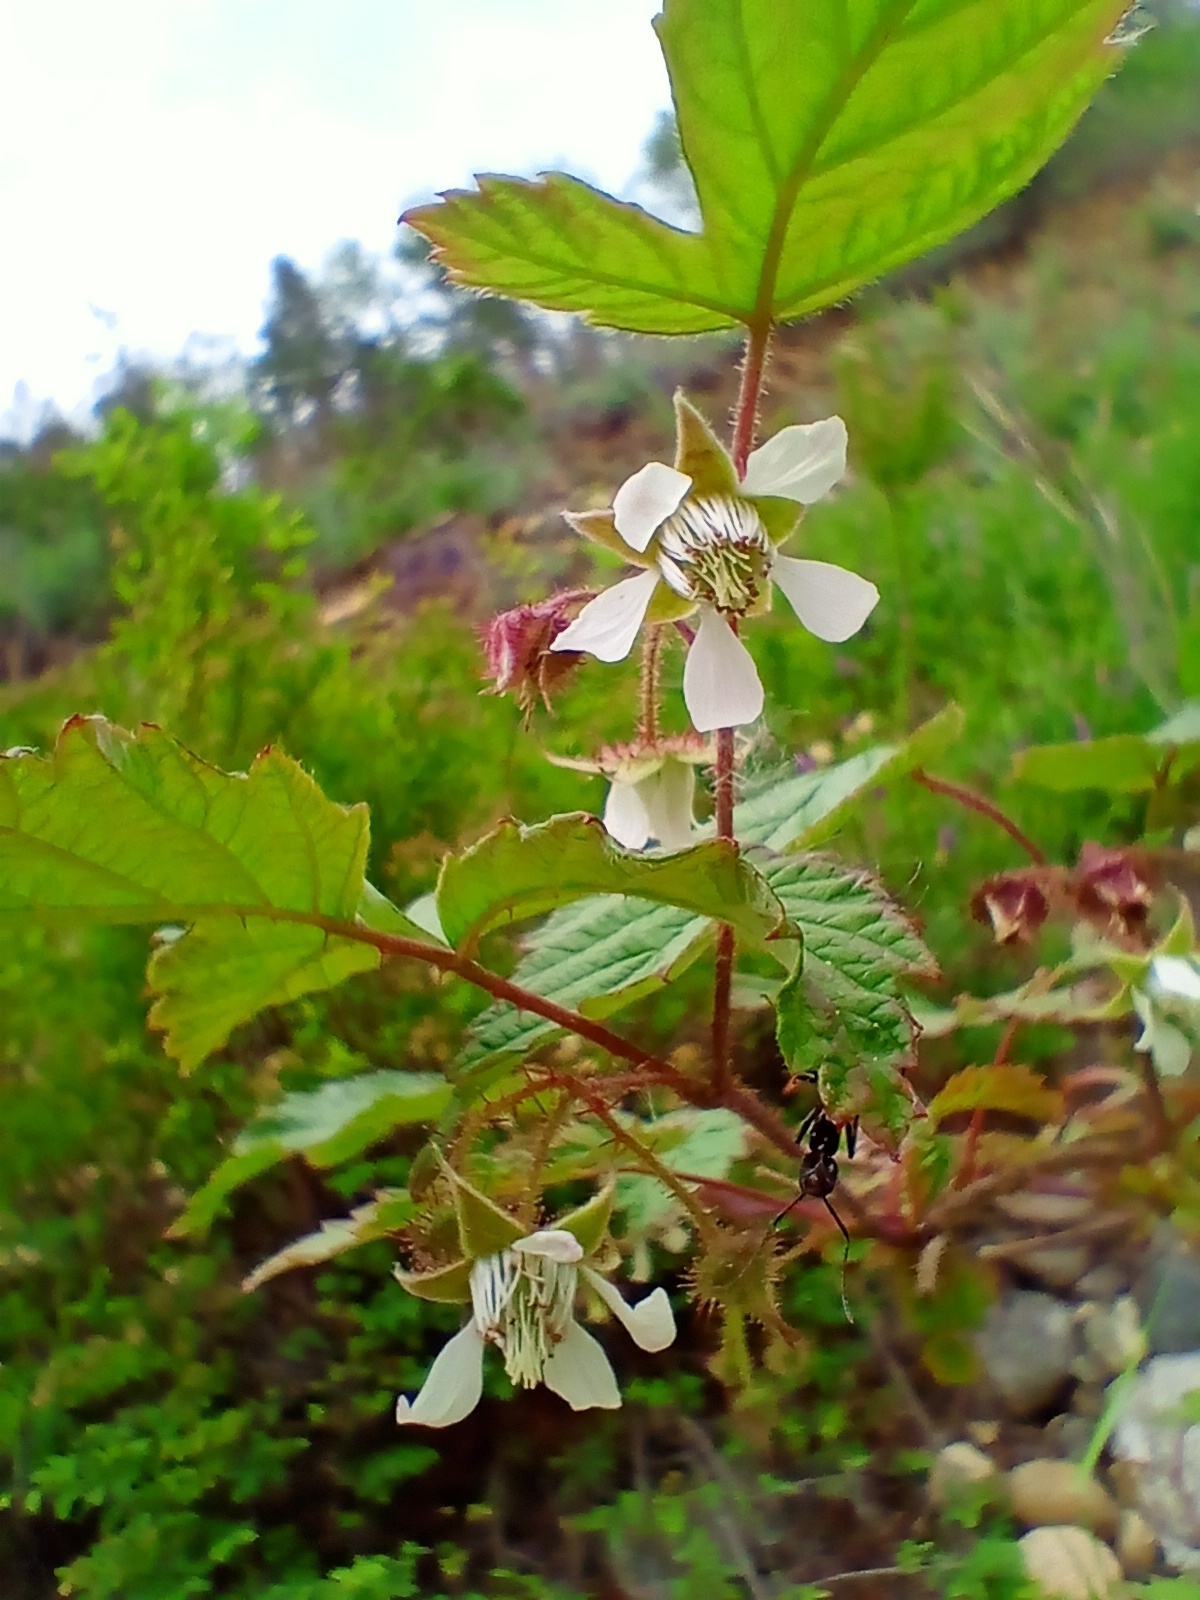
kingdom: Plantae
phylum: Tracheophyta
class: Magnoliopsida
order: Rosales
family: Rosaceae
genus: Rubus
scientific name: Rubus sachalinensis
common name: Red raspberry
